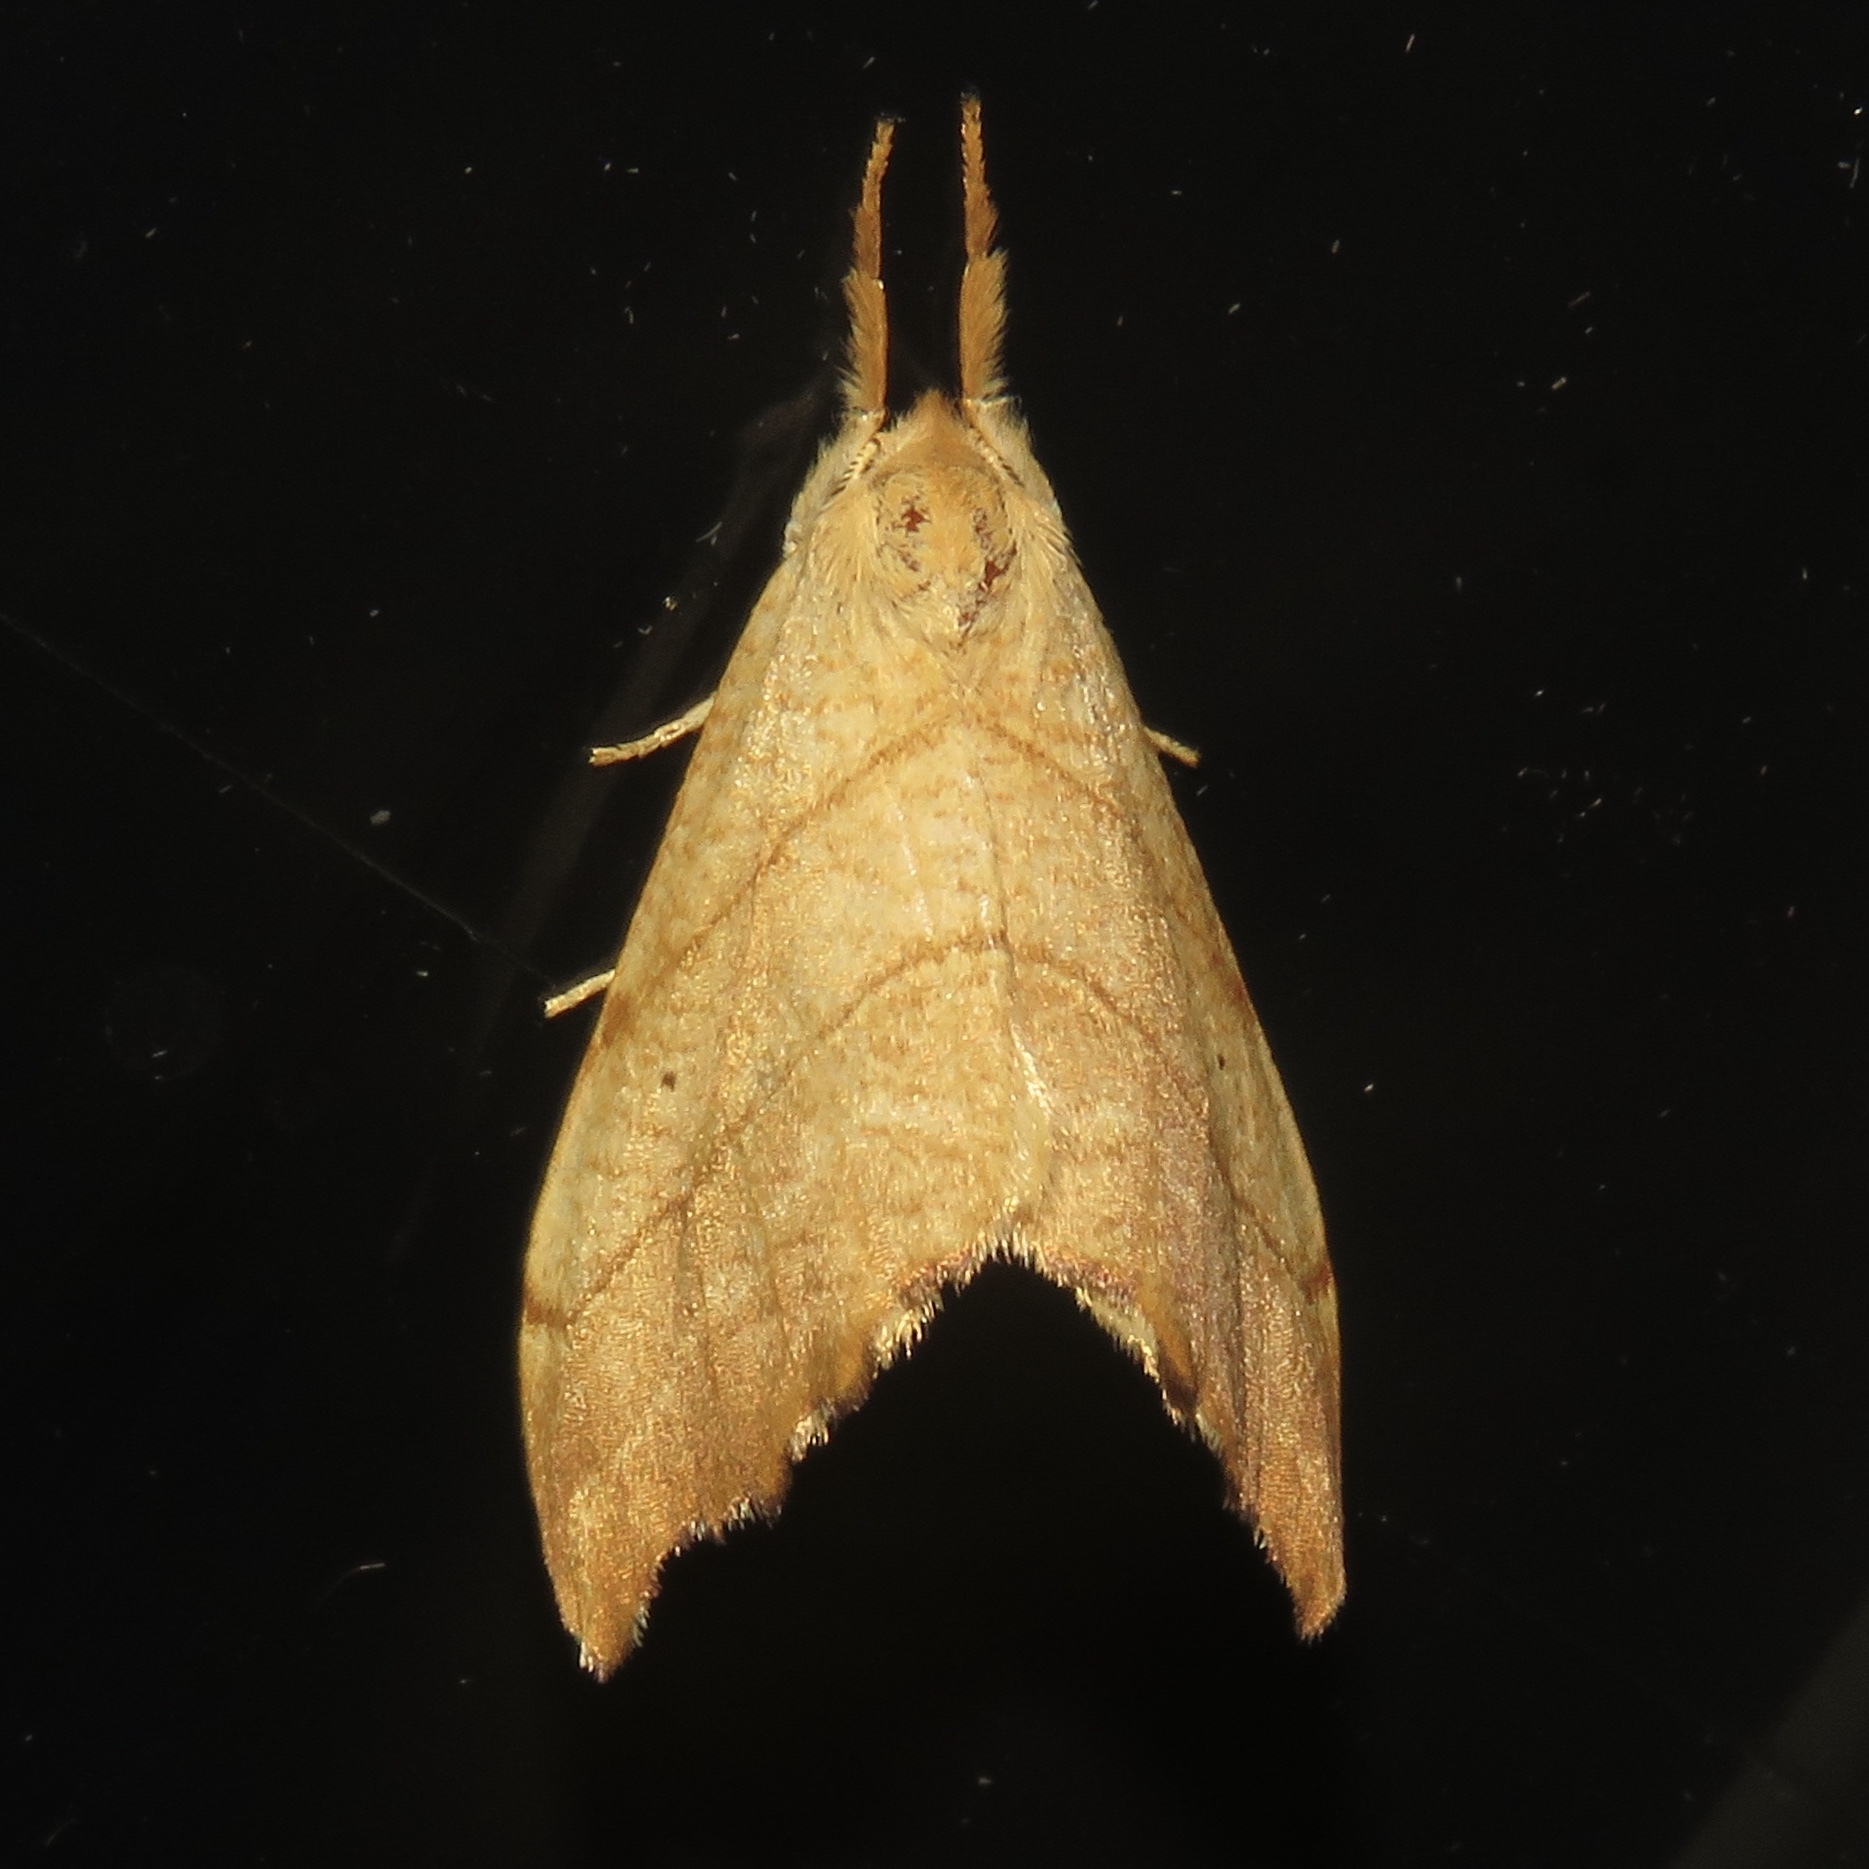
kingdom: Animalia
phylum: Arthropoda
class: Insecta
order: Lepidoptera
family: Drepanidae
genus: Falcaria
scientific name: Falcaria bilineata
